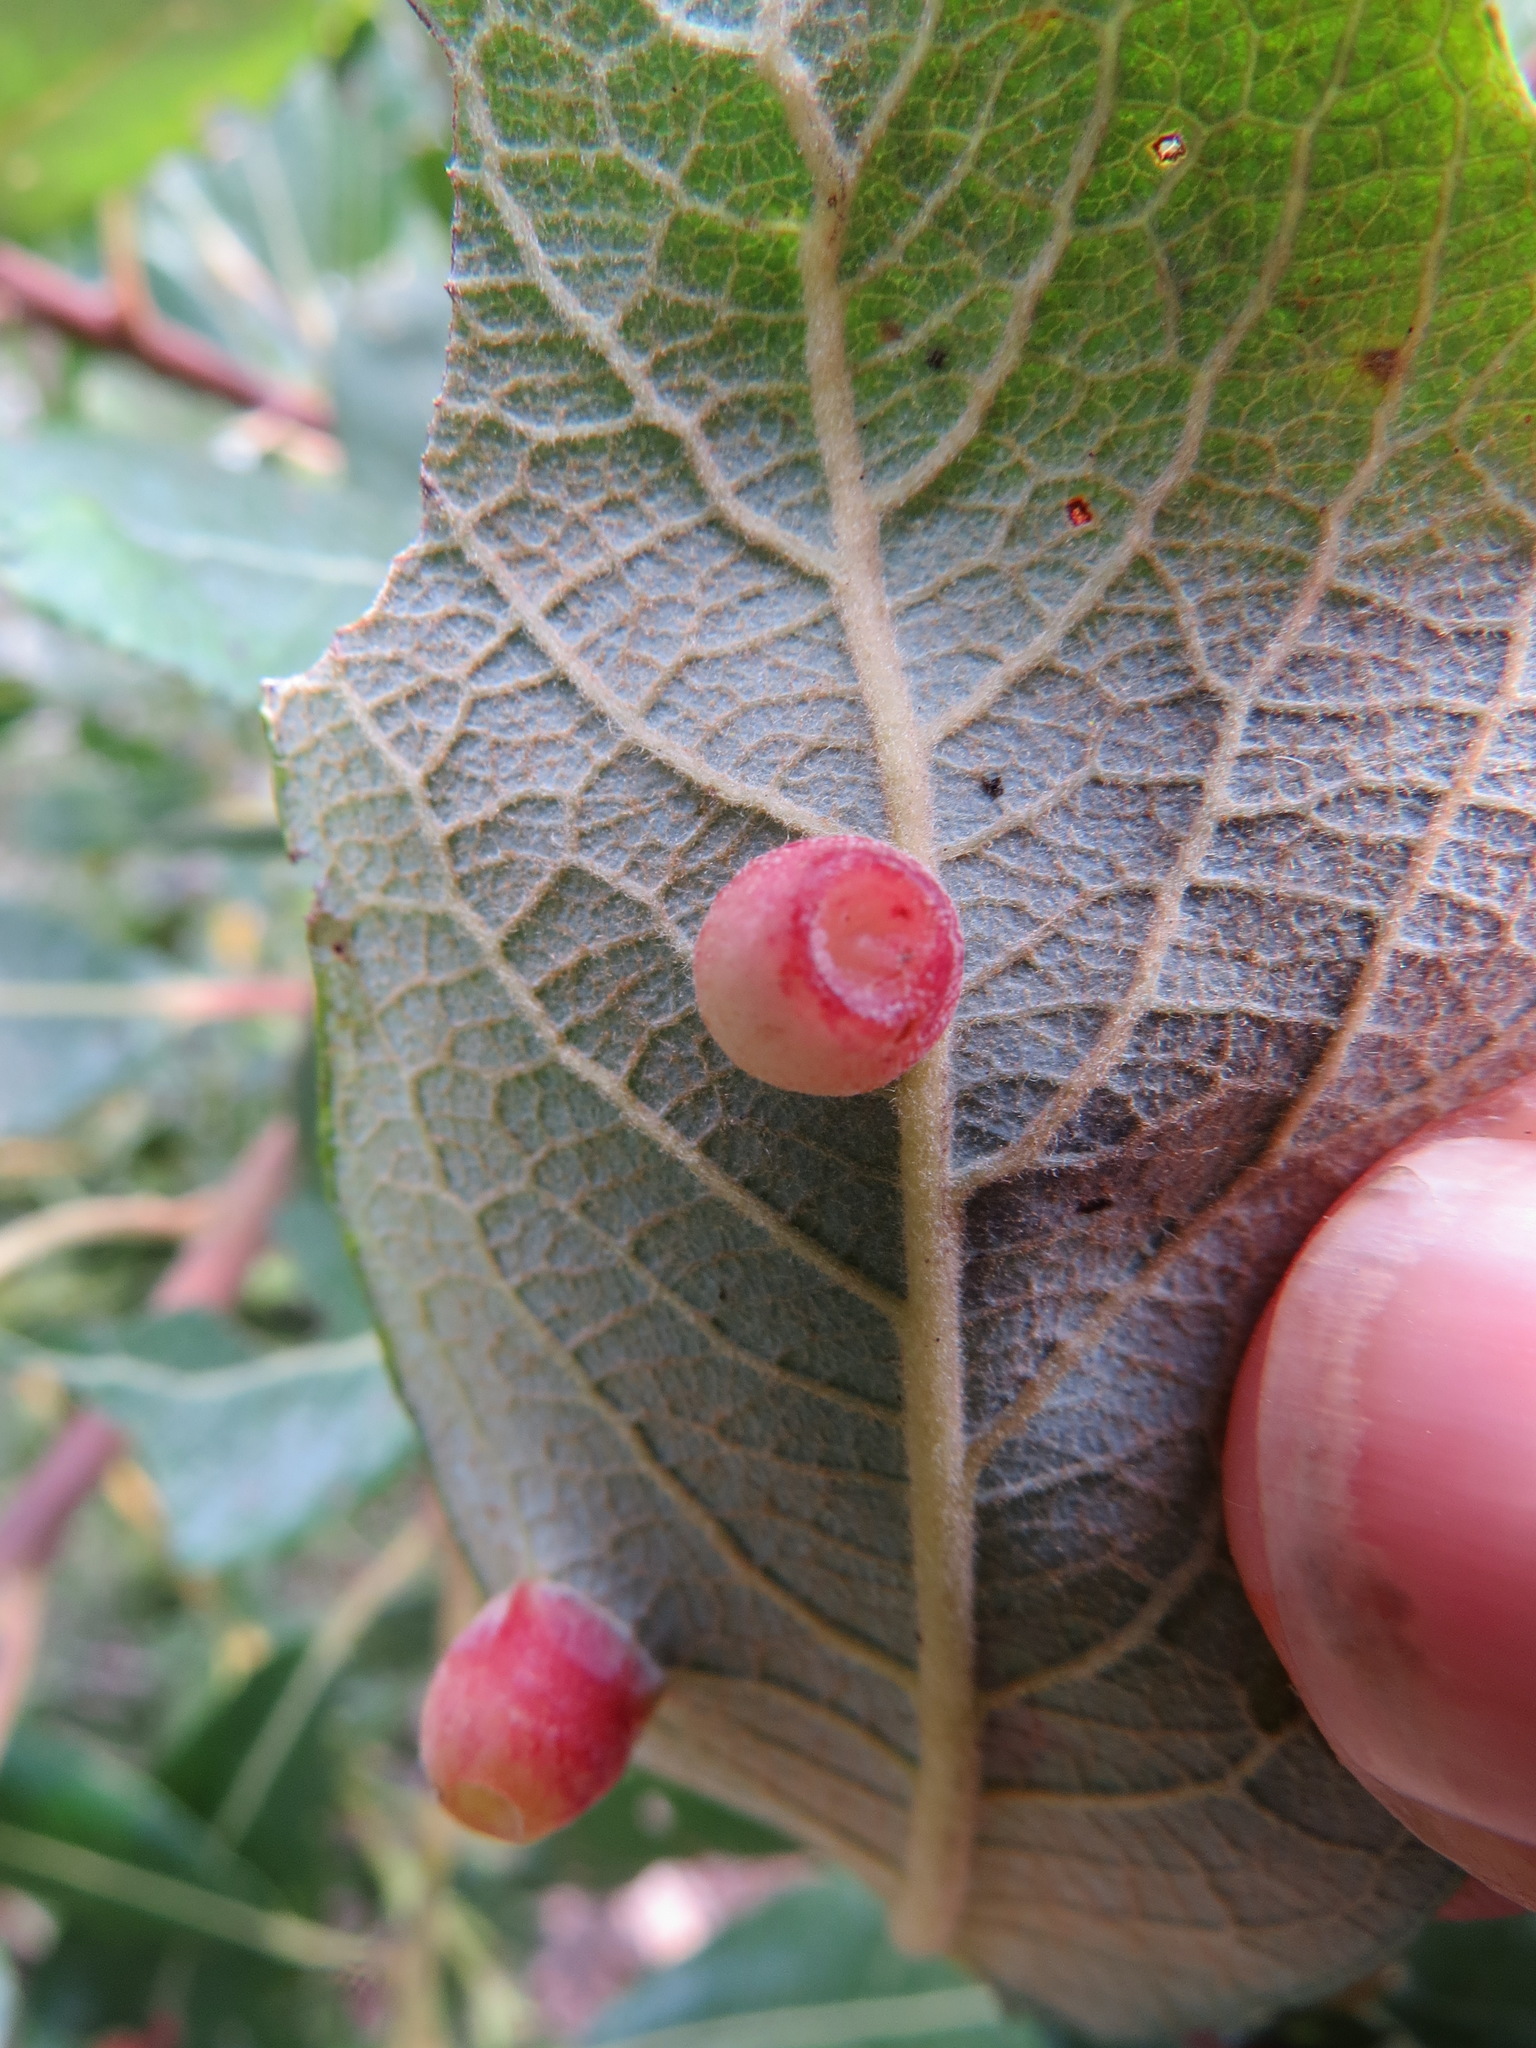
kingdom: Animalia
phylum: Arthropoda
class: Insecta
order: Diptera
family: Cecidomyiidae
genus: Iteomyia
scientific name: Iteomyia
